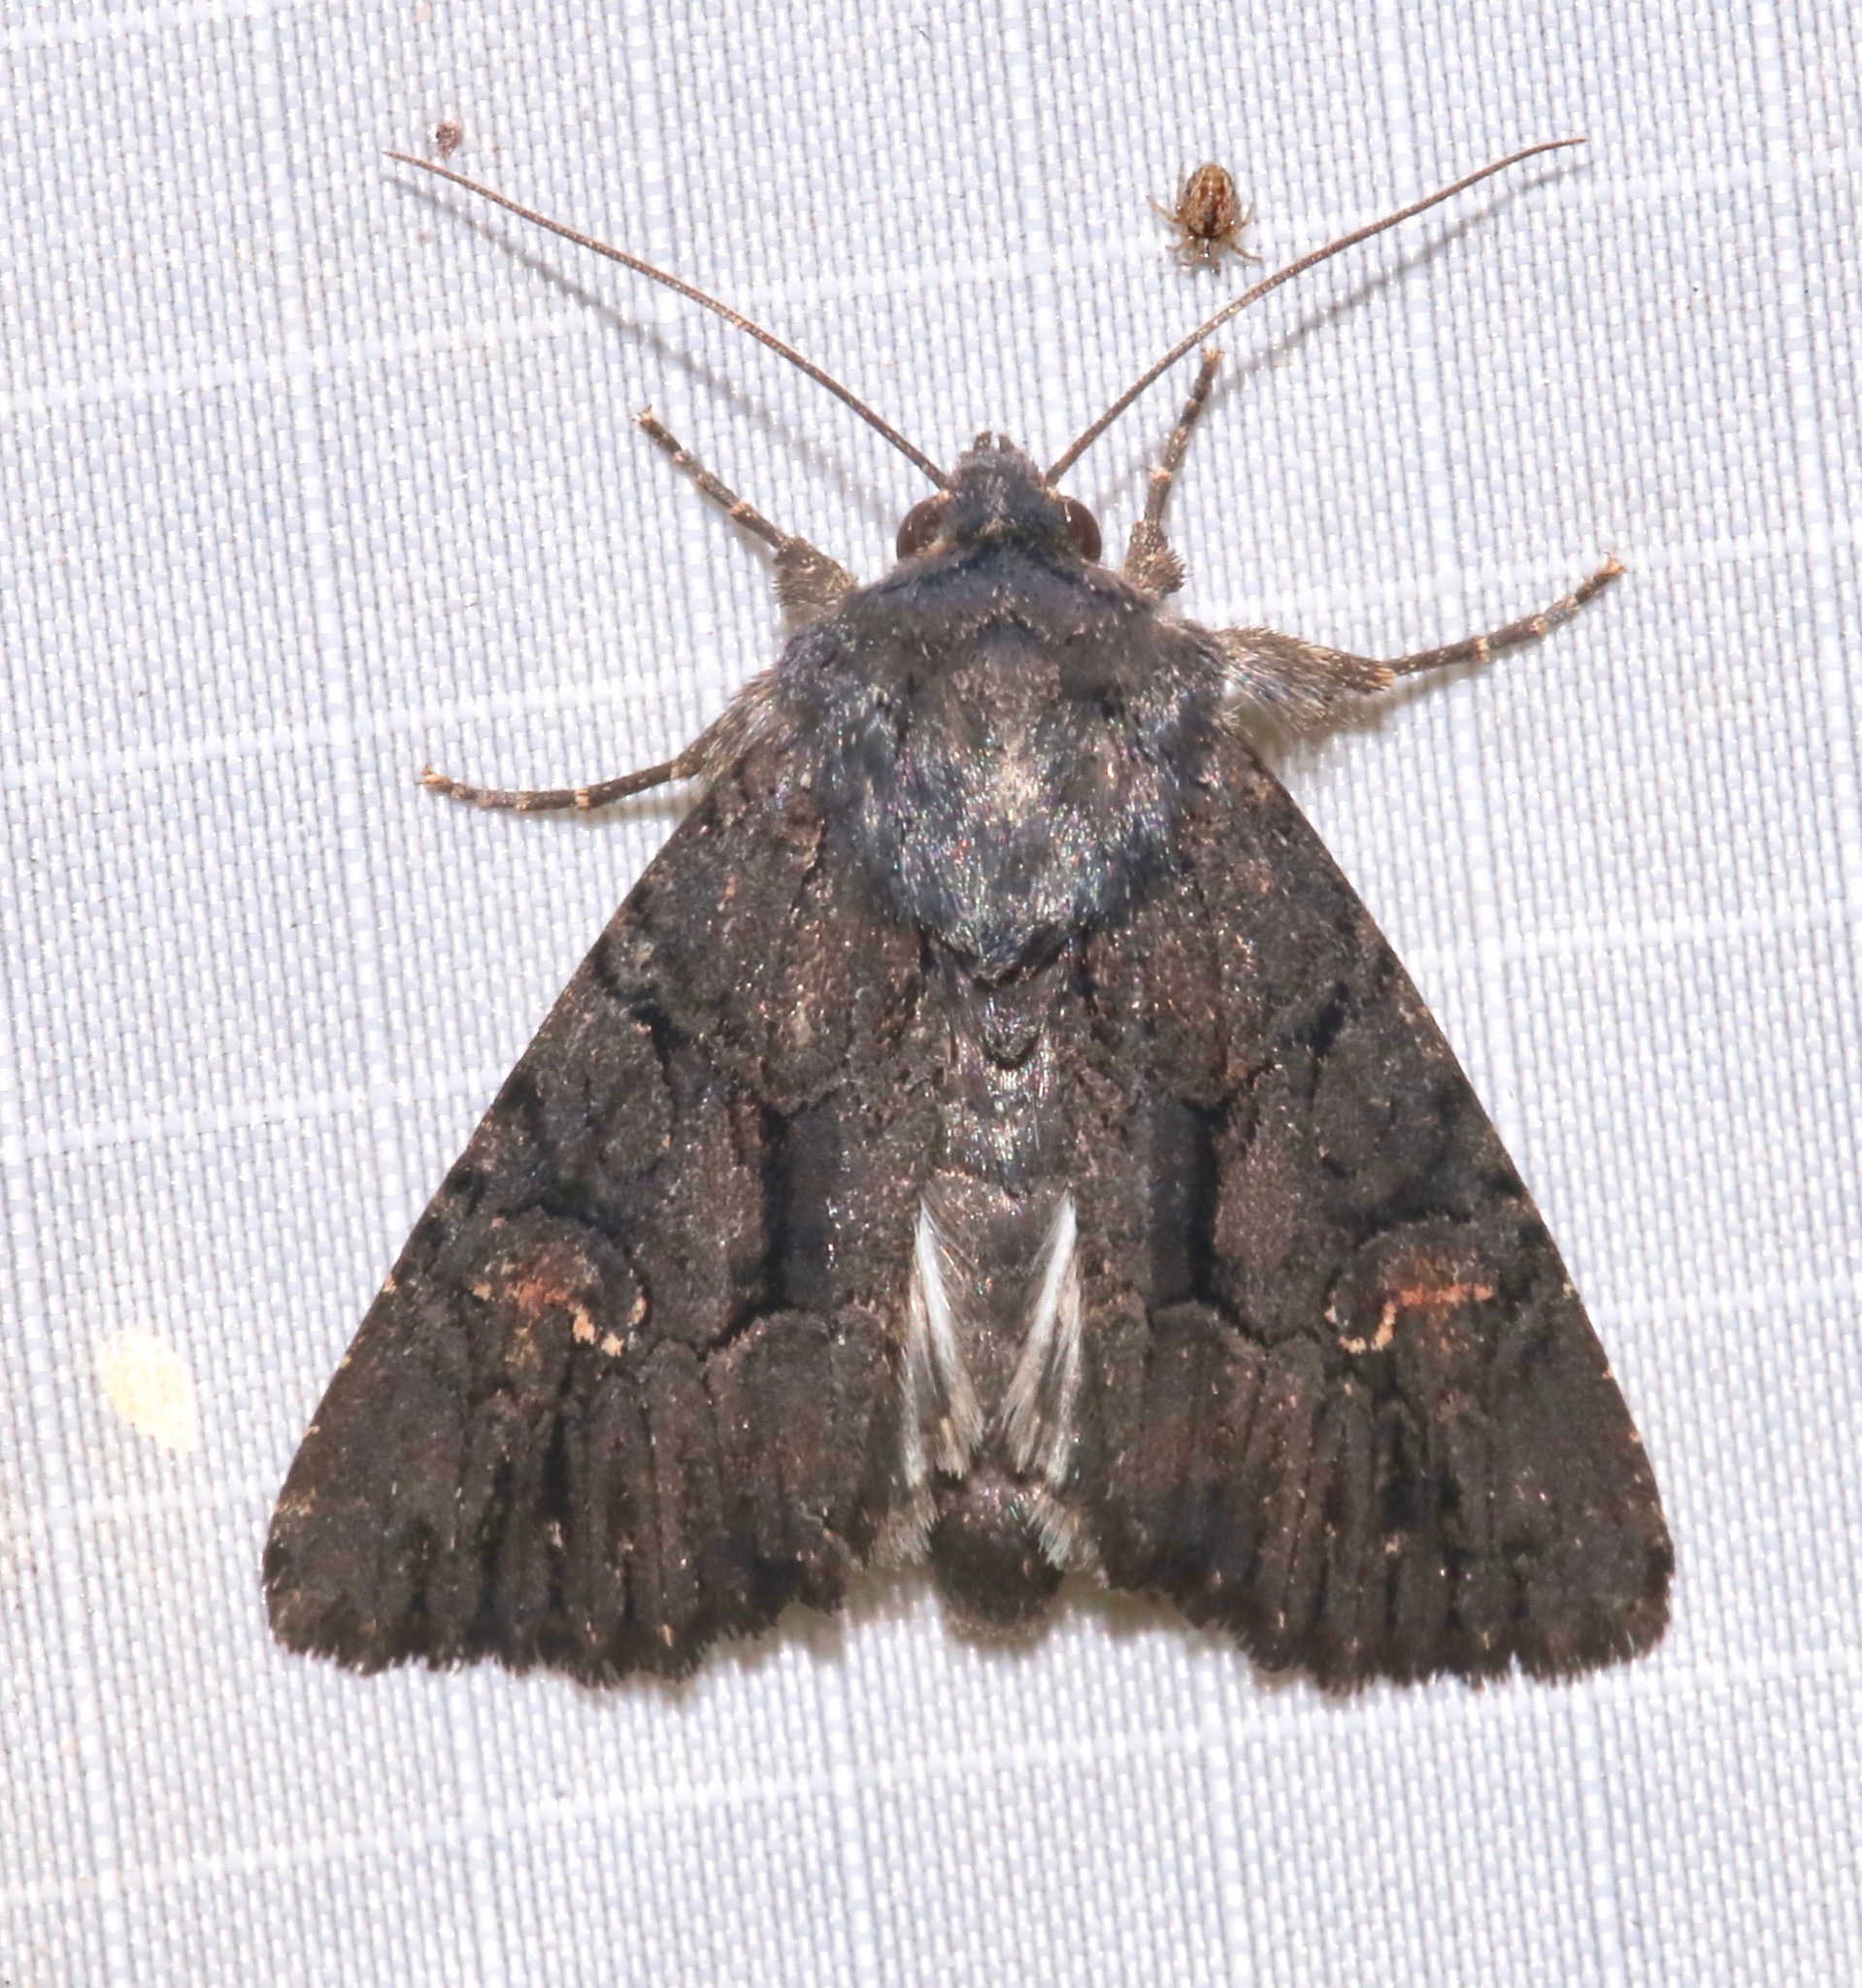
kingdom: Animalia
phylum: Arthropoda
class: Insecta
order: Lepidoptera
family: Noctuidae
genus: Apamea
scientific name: Apamea burgessi
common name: Burgess' apamea moth
